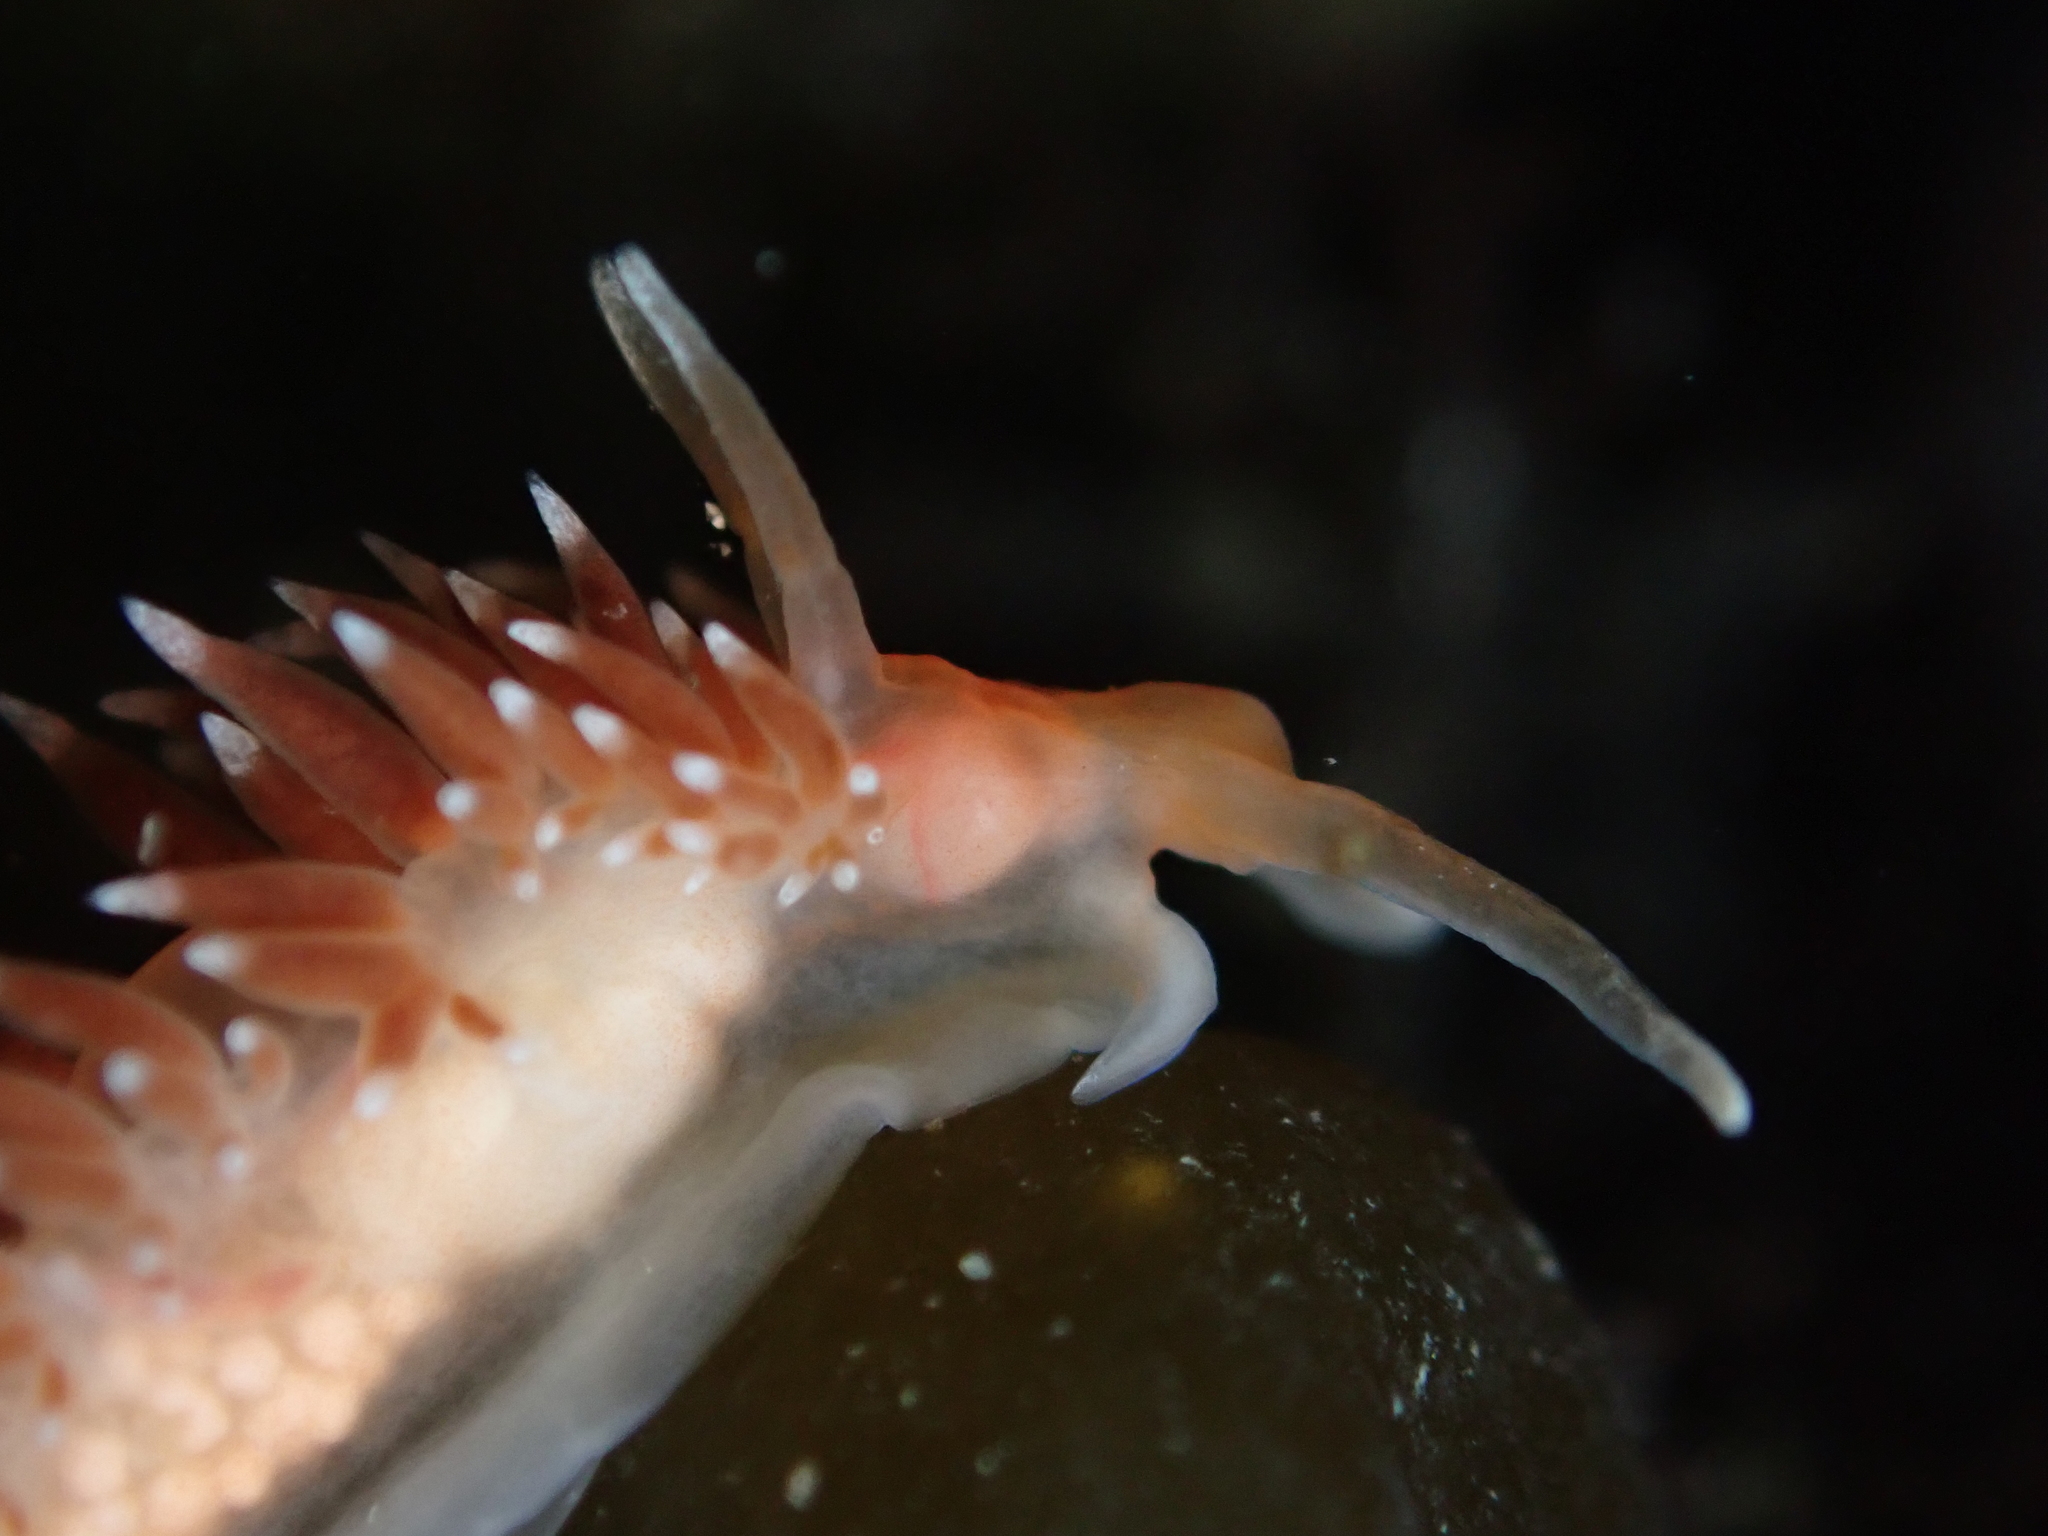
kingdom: Animalia
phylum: Mollusca
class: Gastropoda
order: Nudibranchia
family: Facelinidae
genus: Phidiana
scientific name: Phidiana milleri
